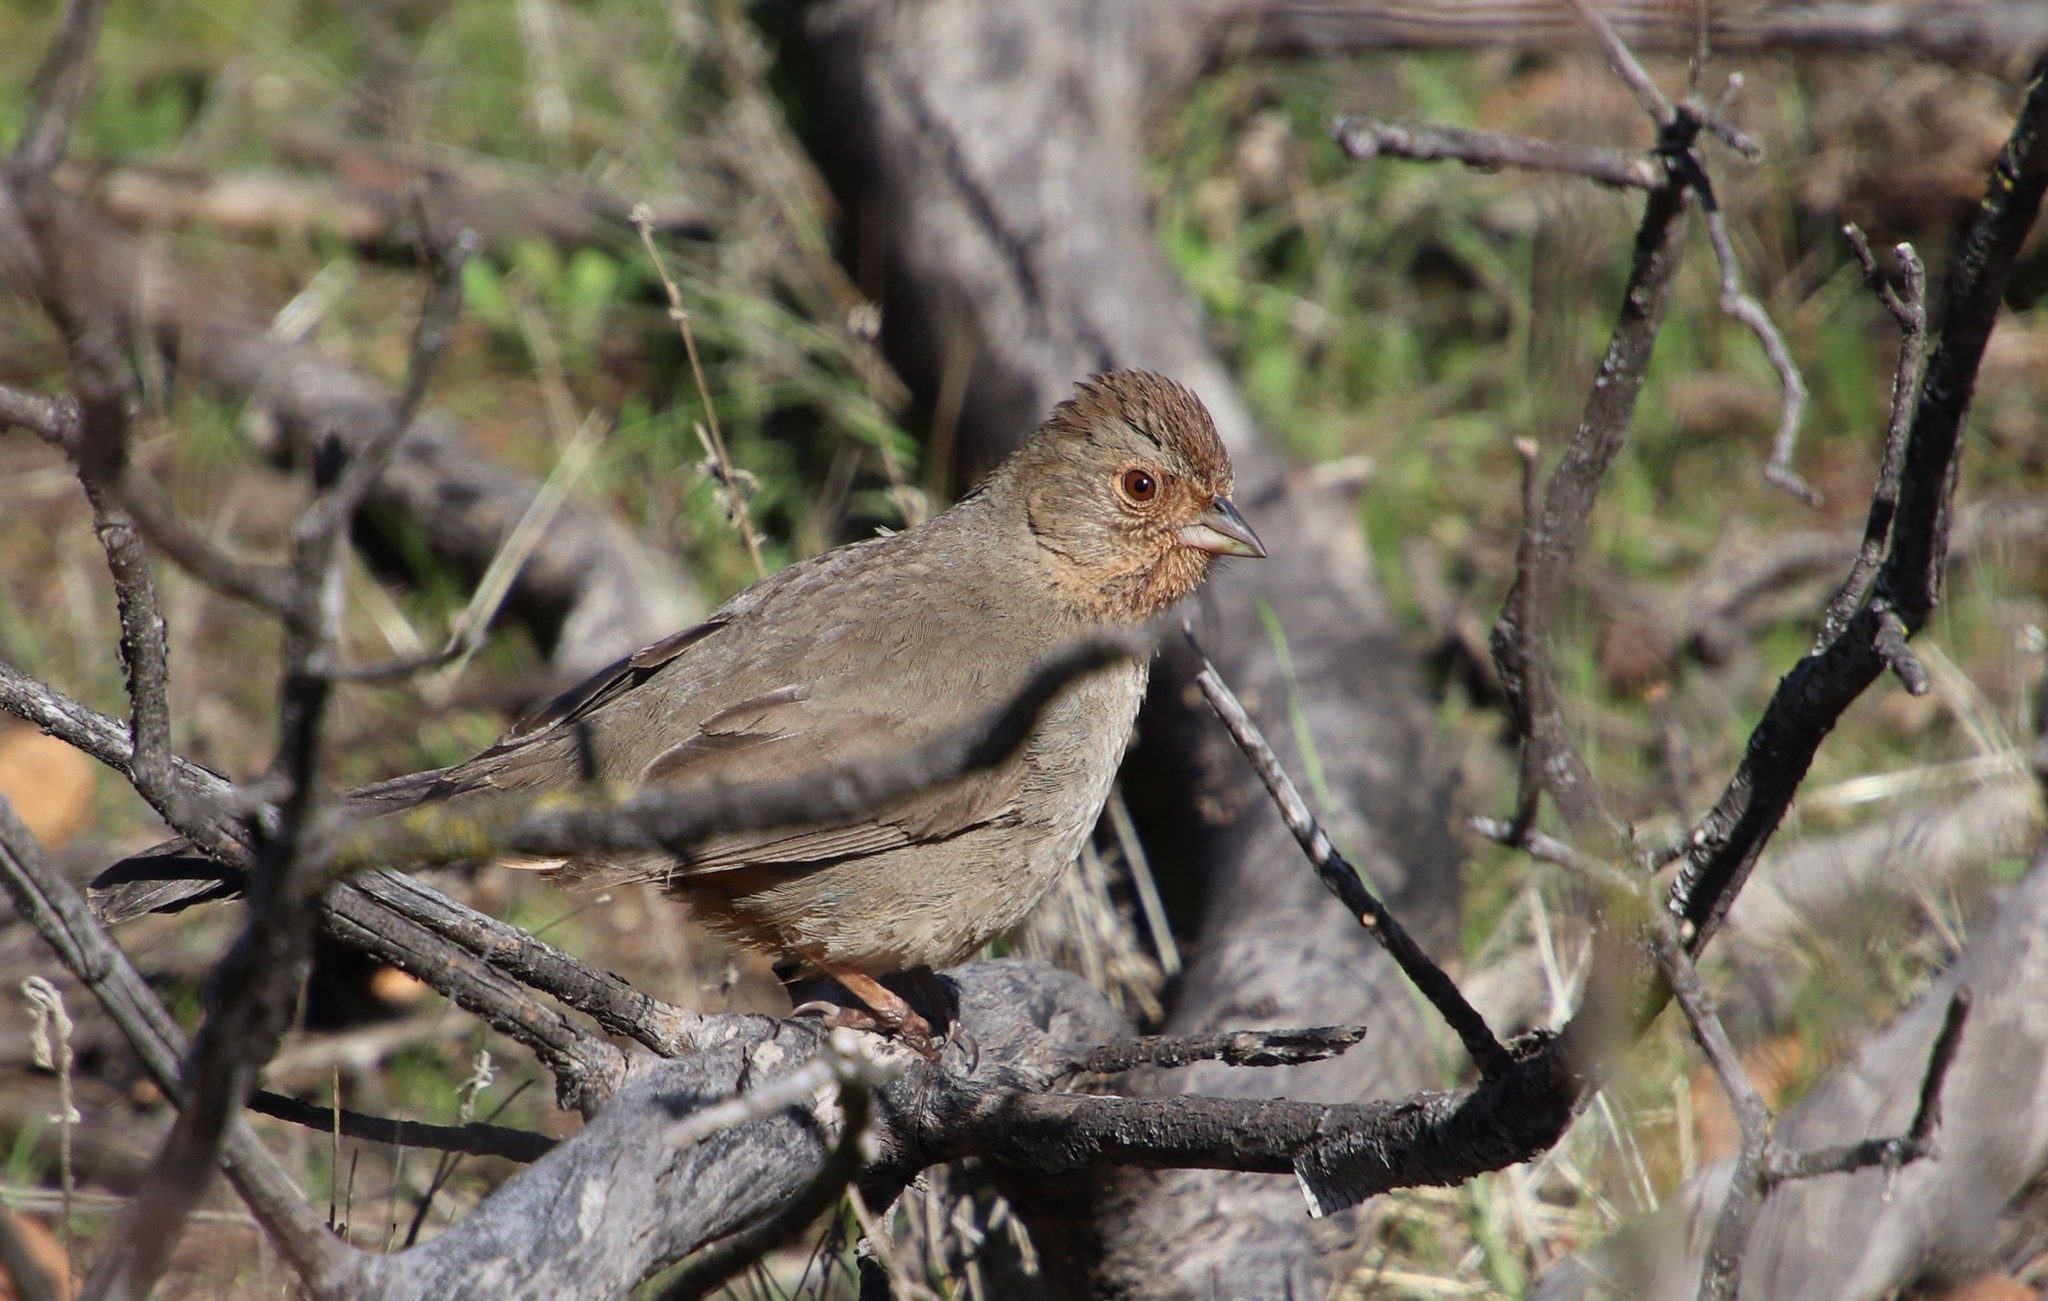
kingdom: Animalia
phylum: Chordata
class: Aves
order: Passeriformes
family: Passerellidae
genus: Melozone
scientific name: Melozone crissalis
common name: California towhee
